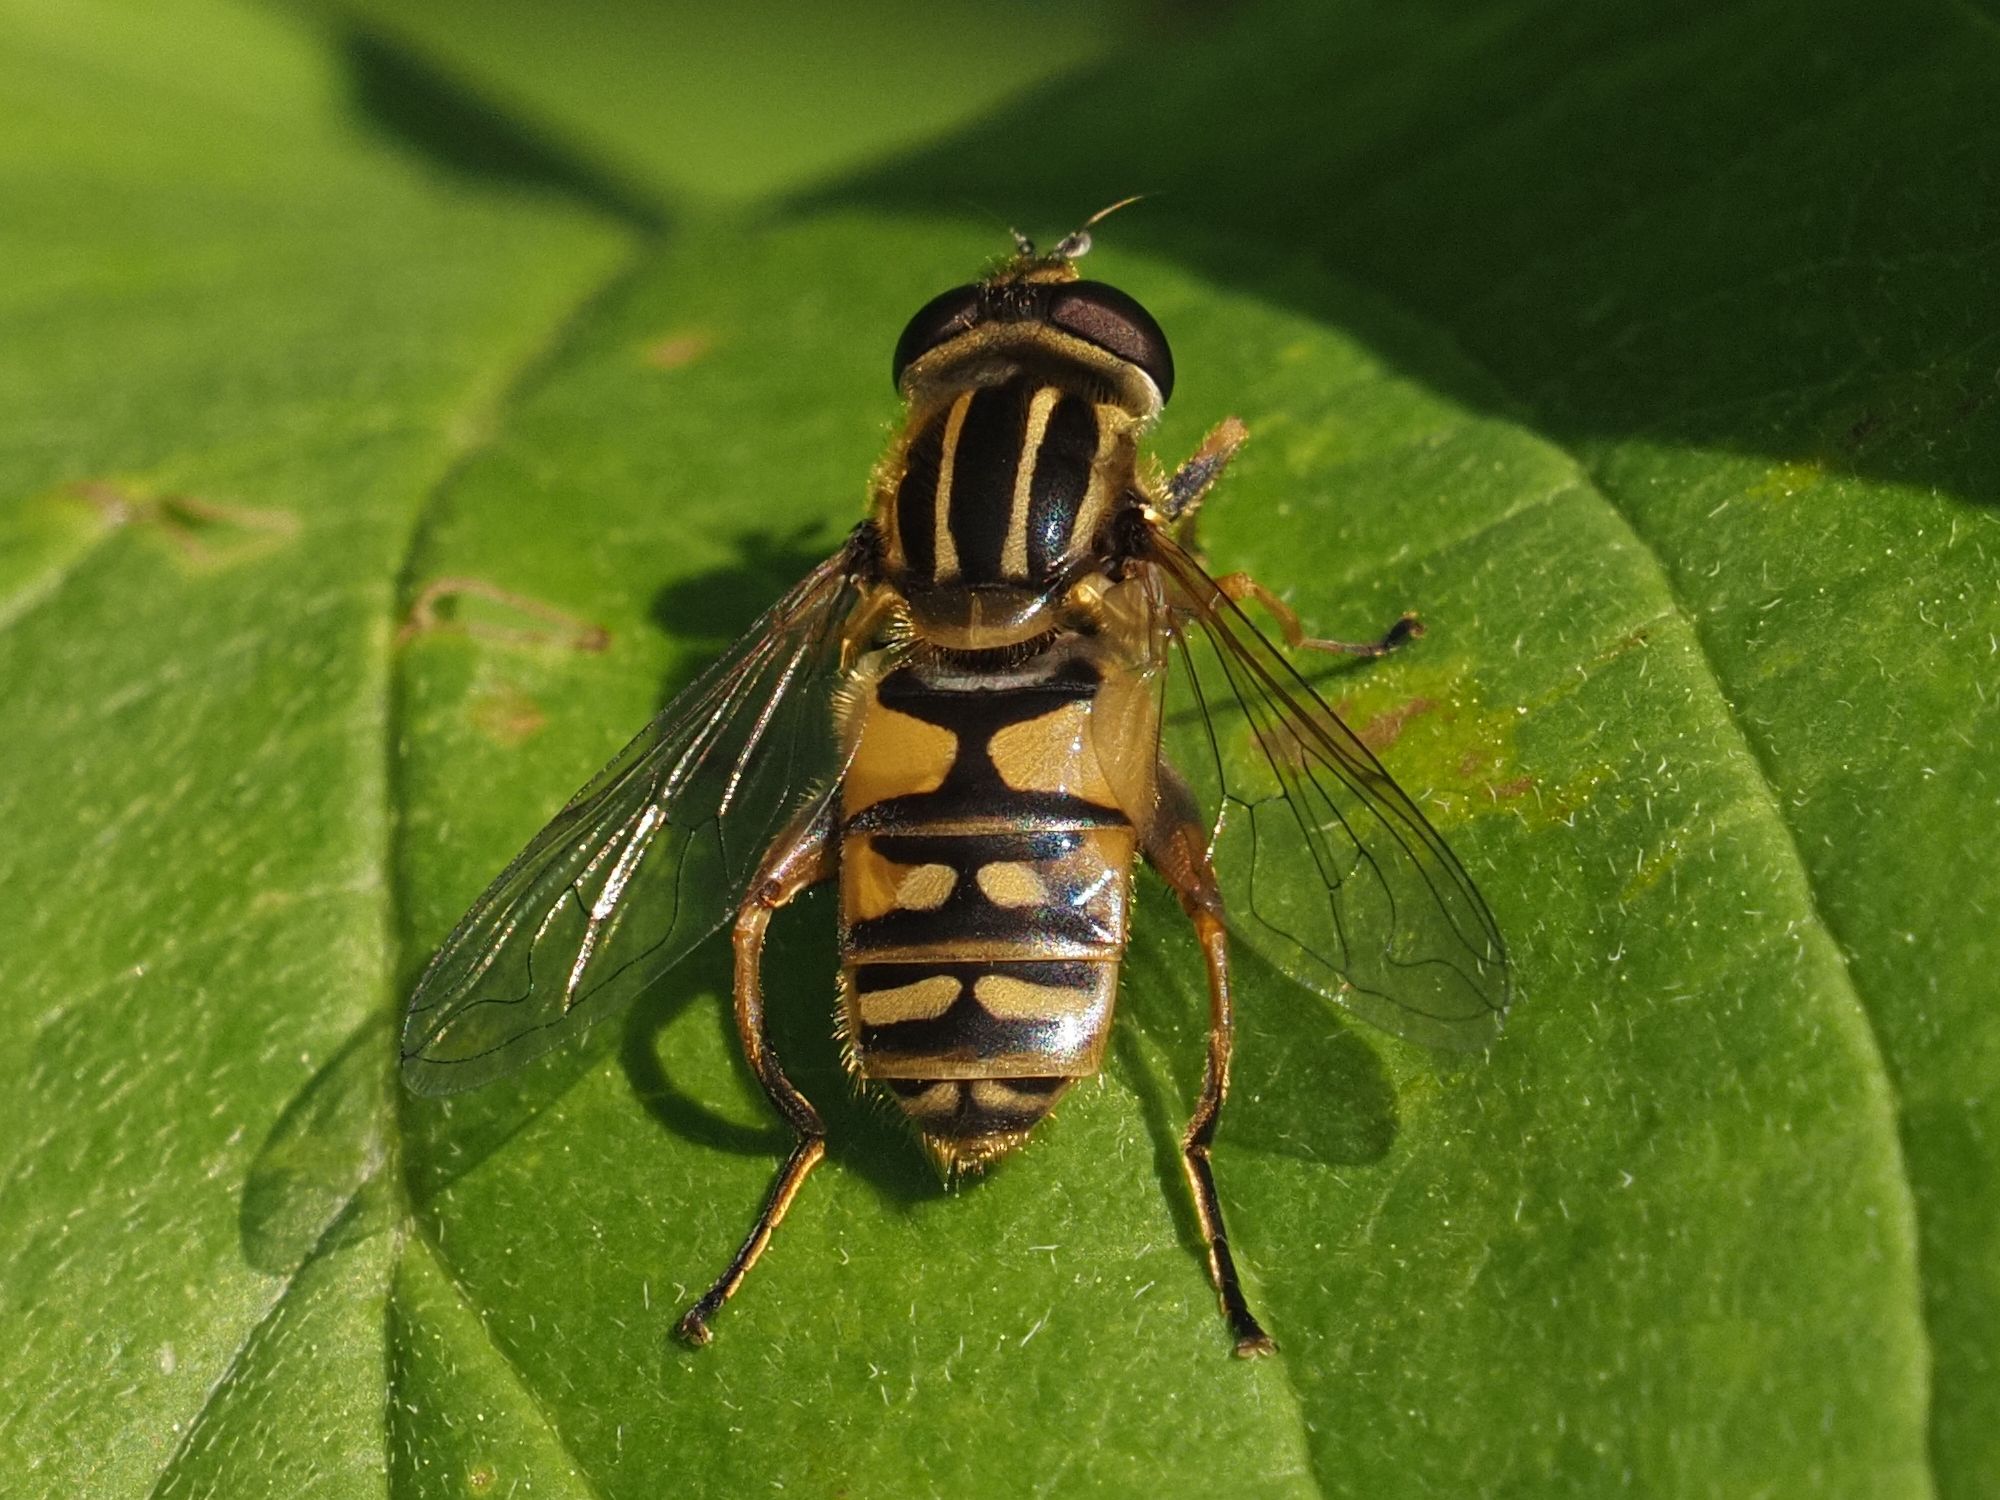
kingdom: Animalia
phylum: Arthropoda
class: Insecta
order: Diptera
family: Syrphidae
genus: Helophilus
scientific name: Helophilus pendulus
